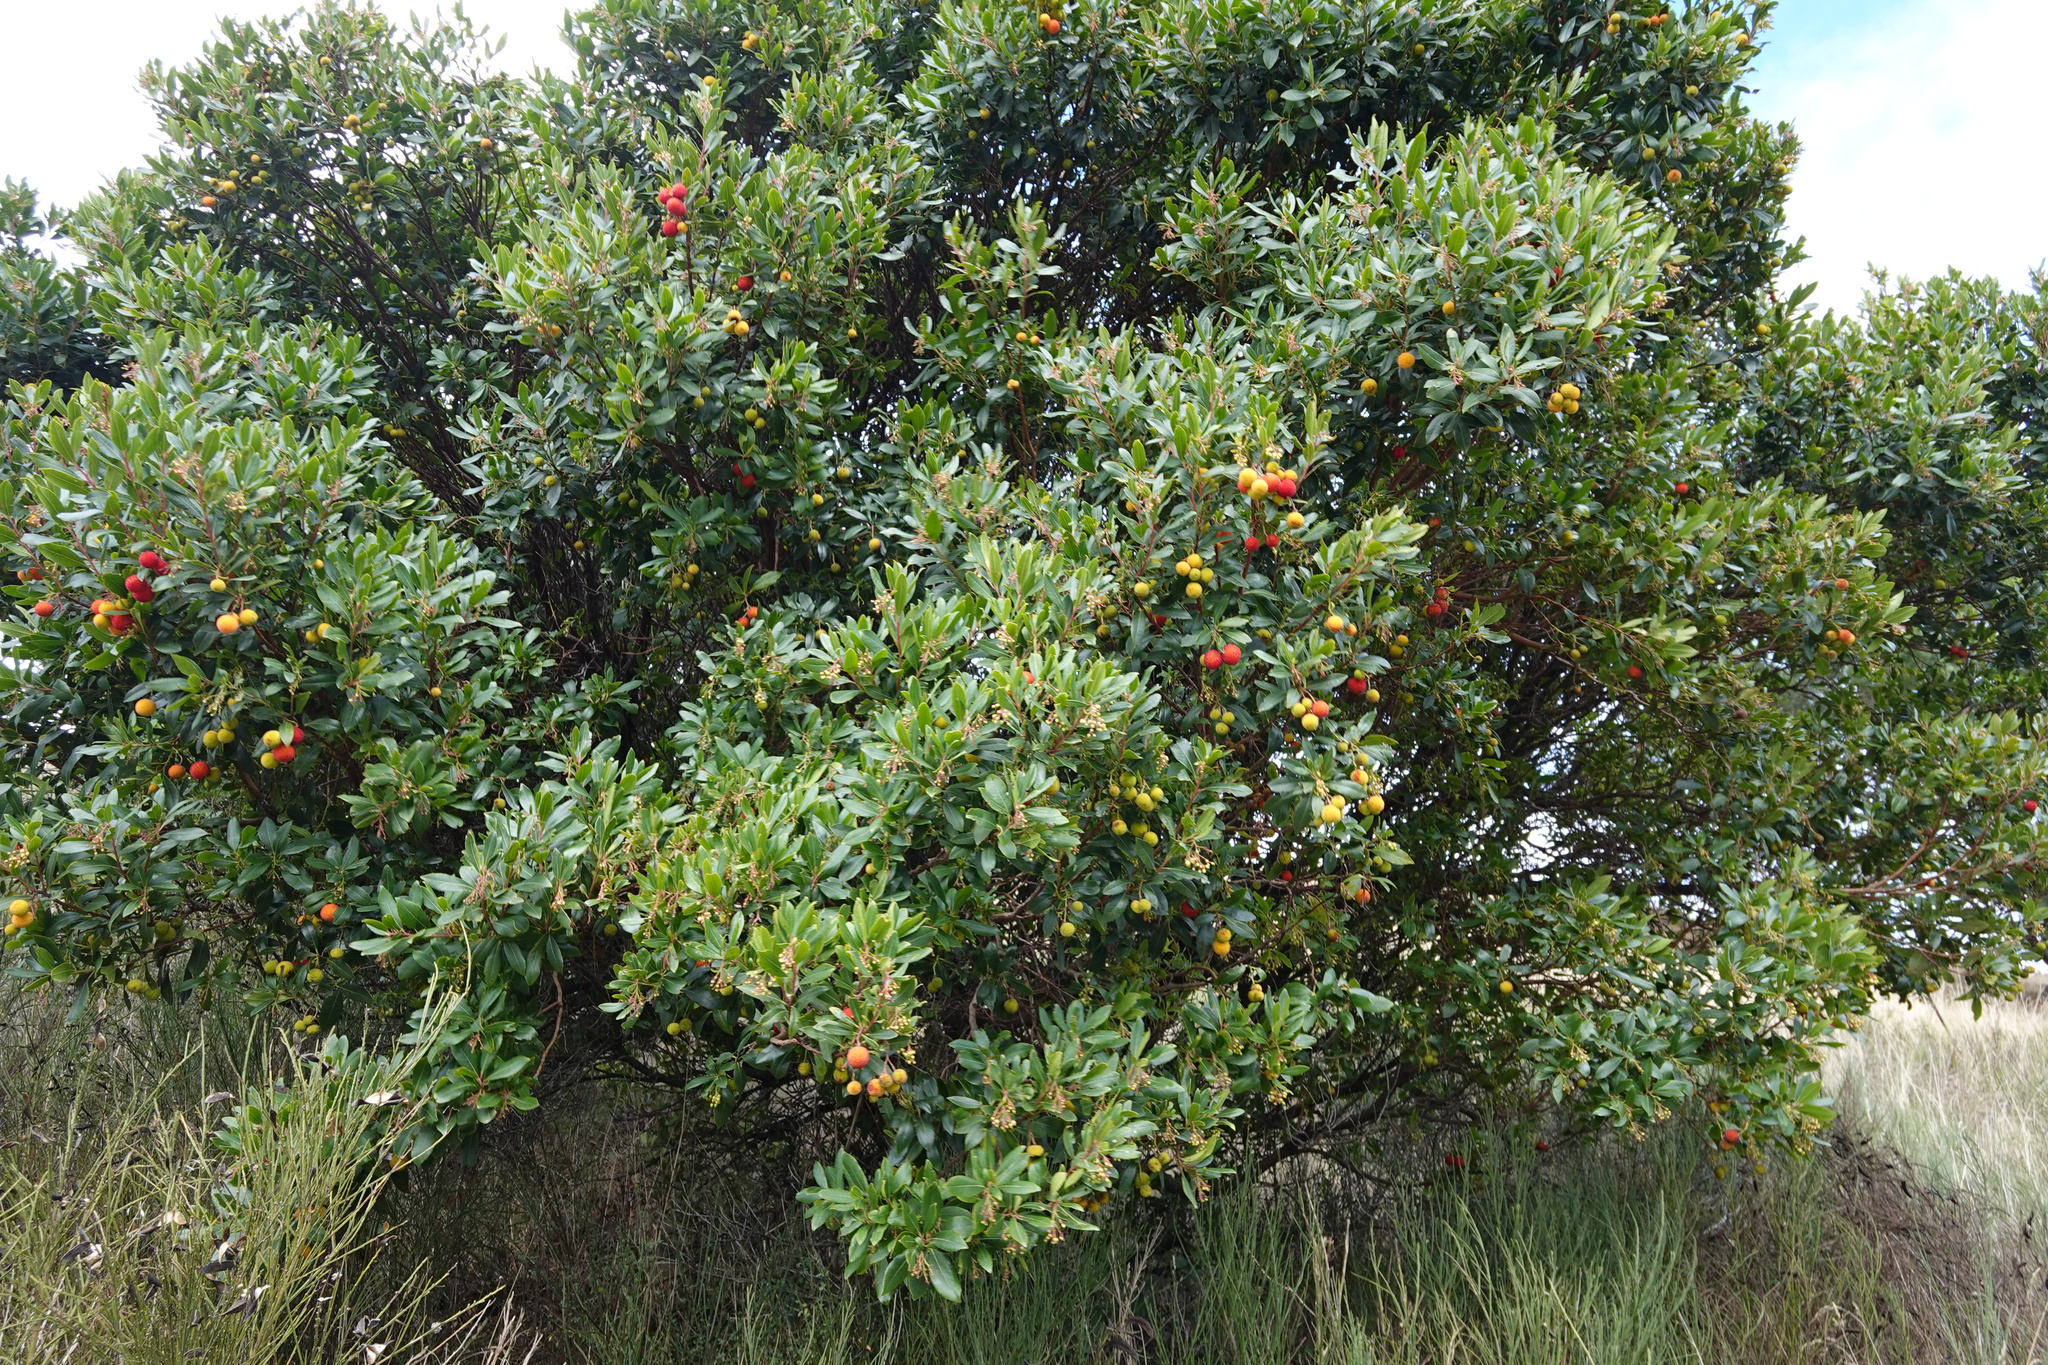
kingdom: Plantae
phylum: Tracheophyta
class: Magnoliopsida
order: Ericales
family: Ericaceae
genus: Arbutus
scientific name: Arbutus unedo
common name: Strawberry-tree
